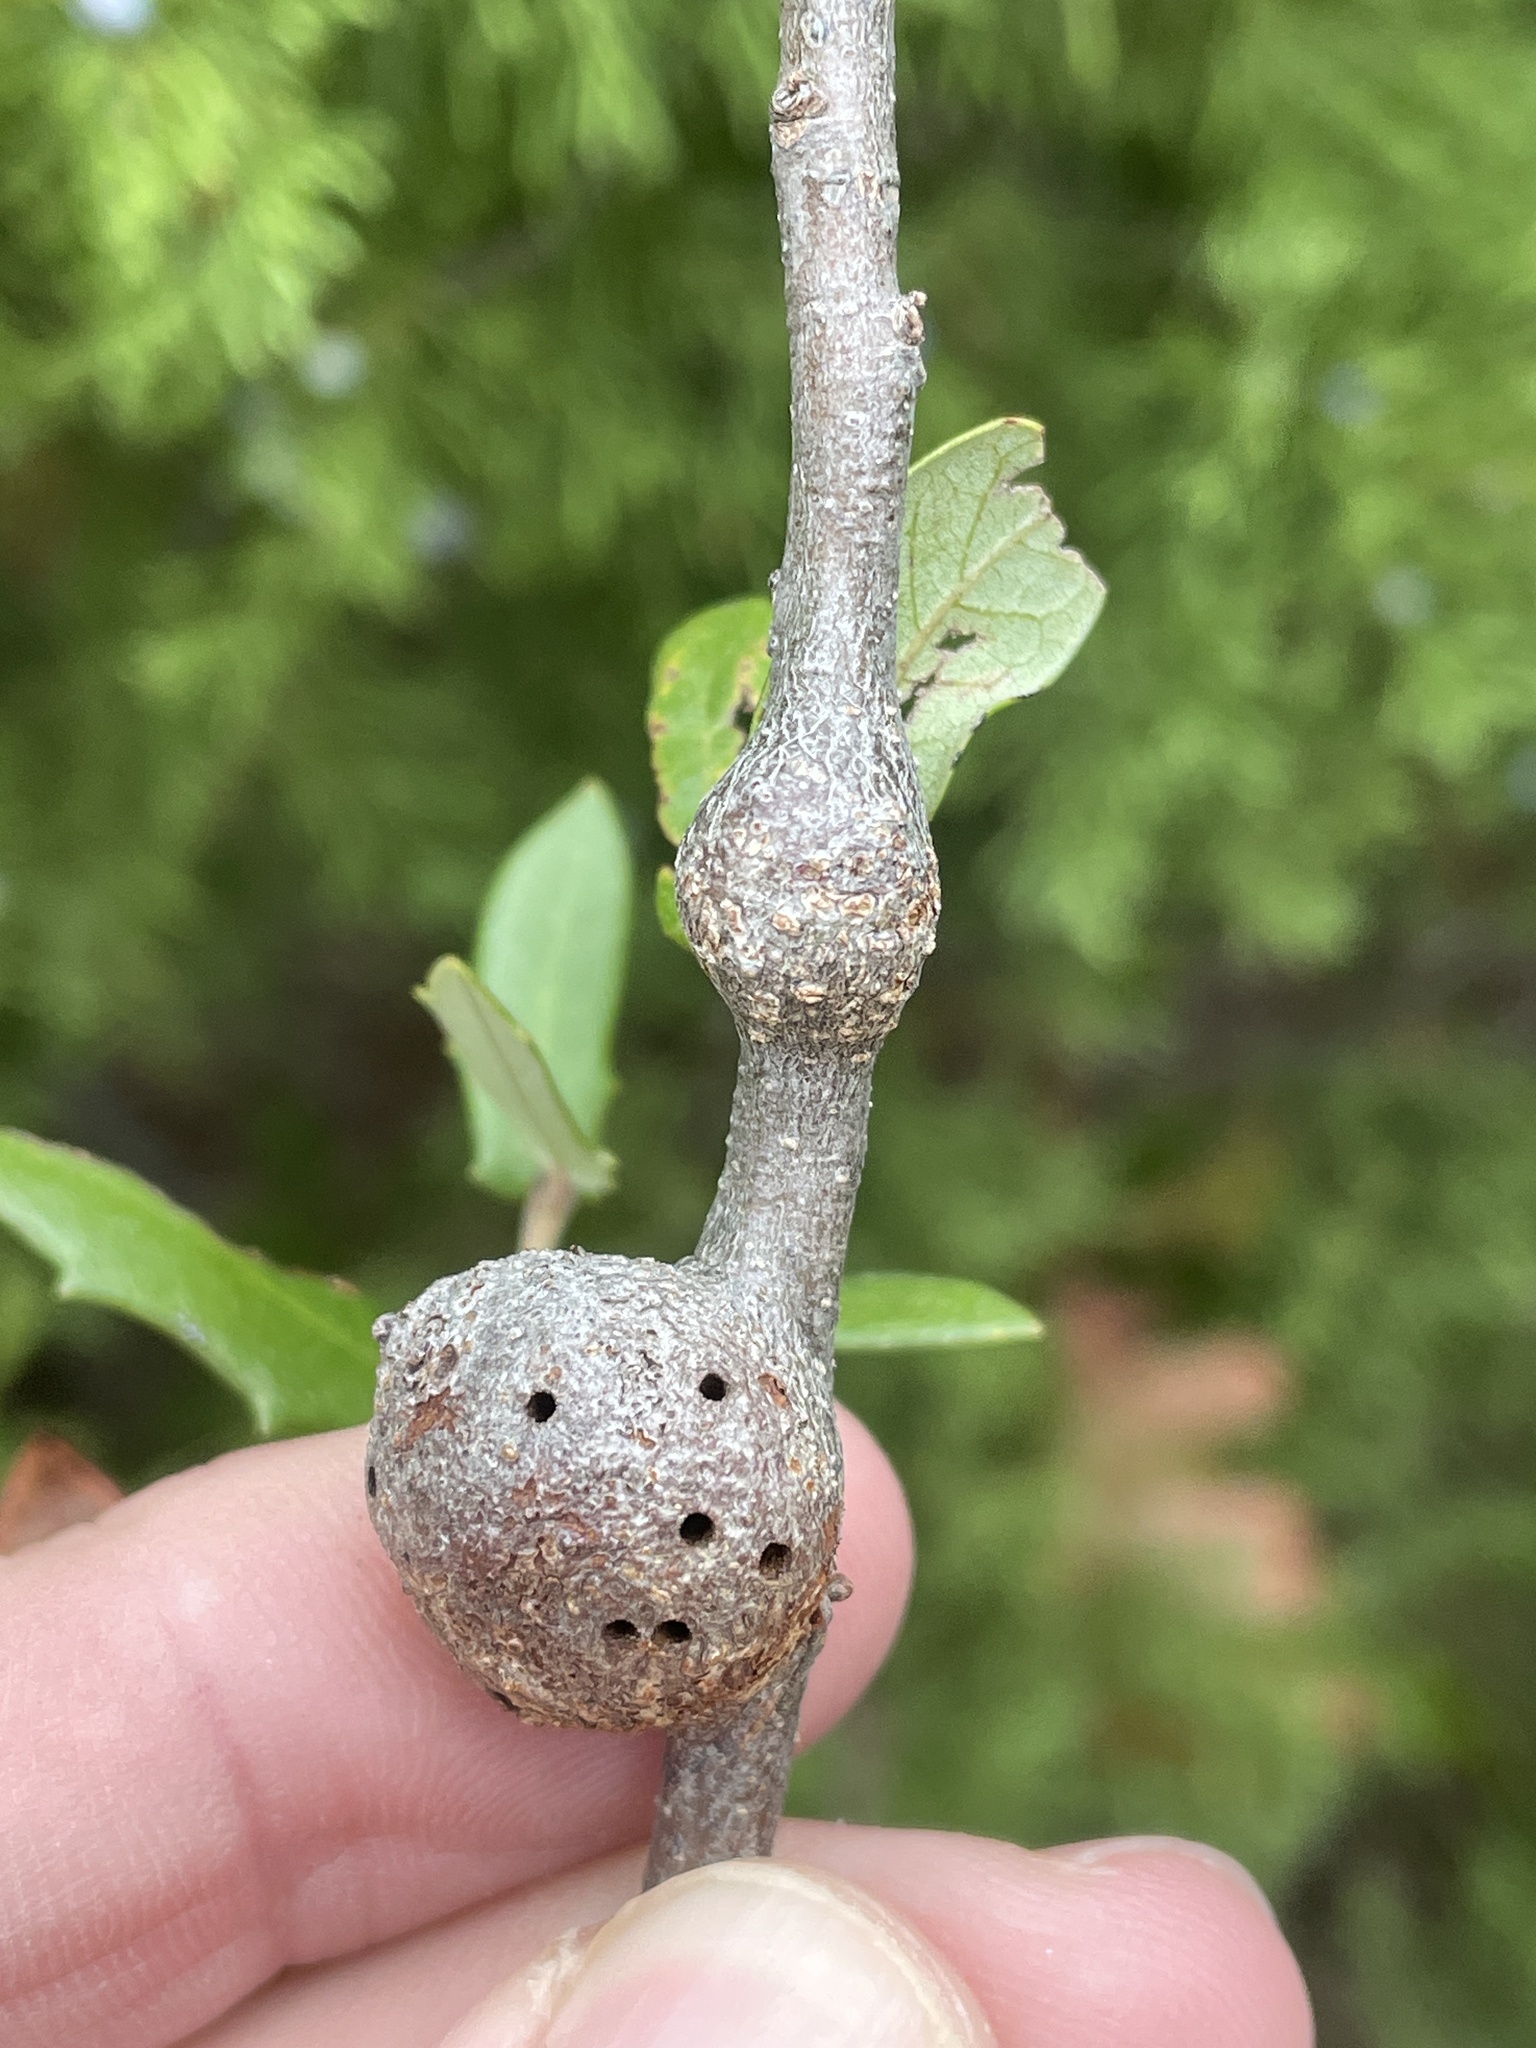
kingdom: Animalia
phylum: Arthropoda
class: Insecta
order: Hymenoptera
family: Cynipidae
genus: Callirhytis
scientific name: Callirhytis
